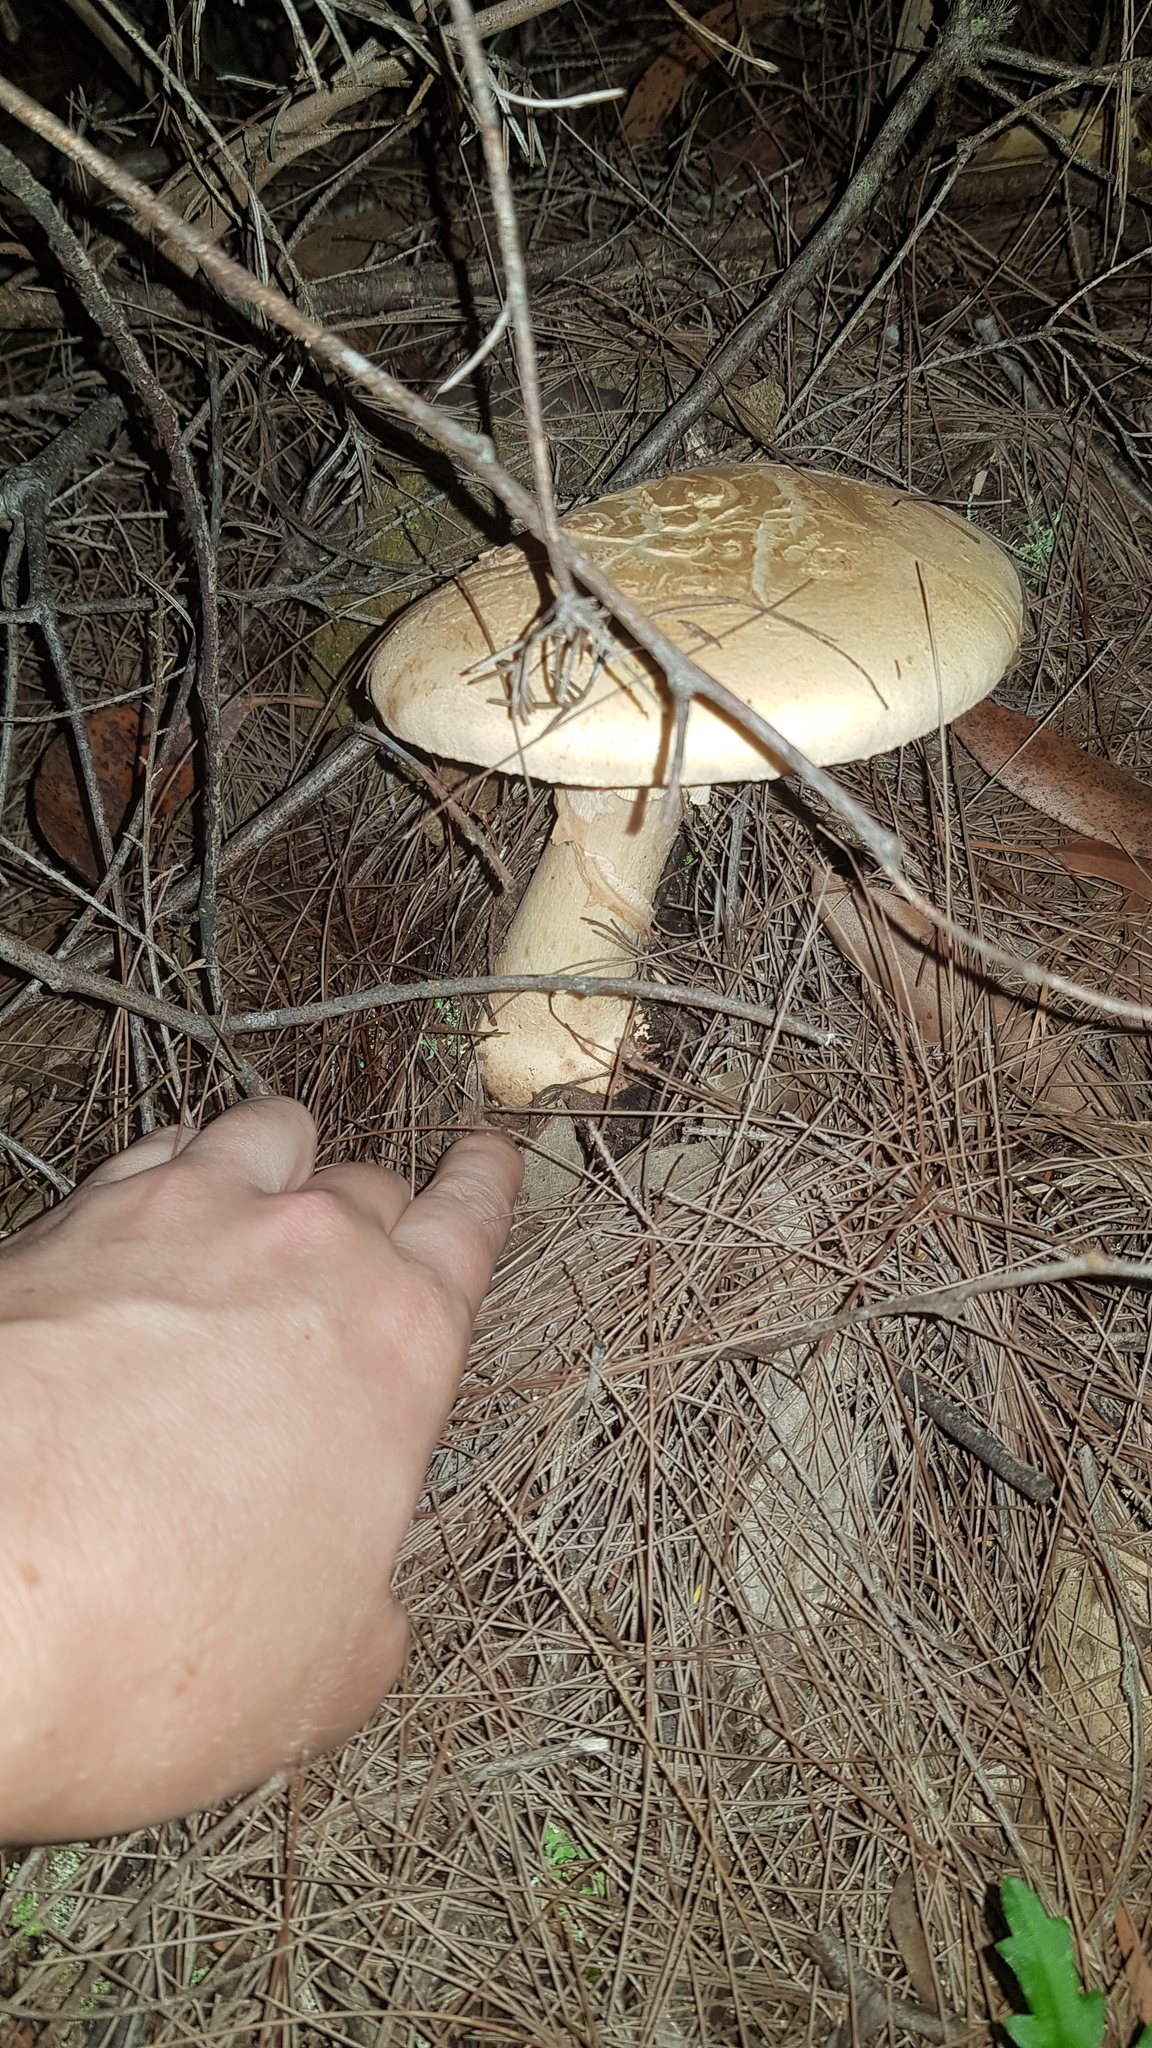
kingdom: Fungi
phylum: Basidiomycota
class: Agaricomycetes
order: Agaricales
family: Amanitaceae
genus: Amanita
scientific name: Amanita ochrophylla
